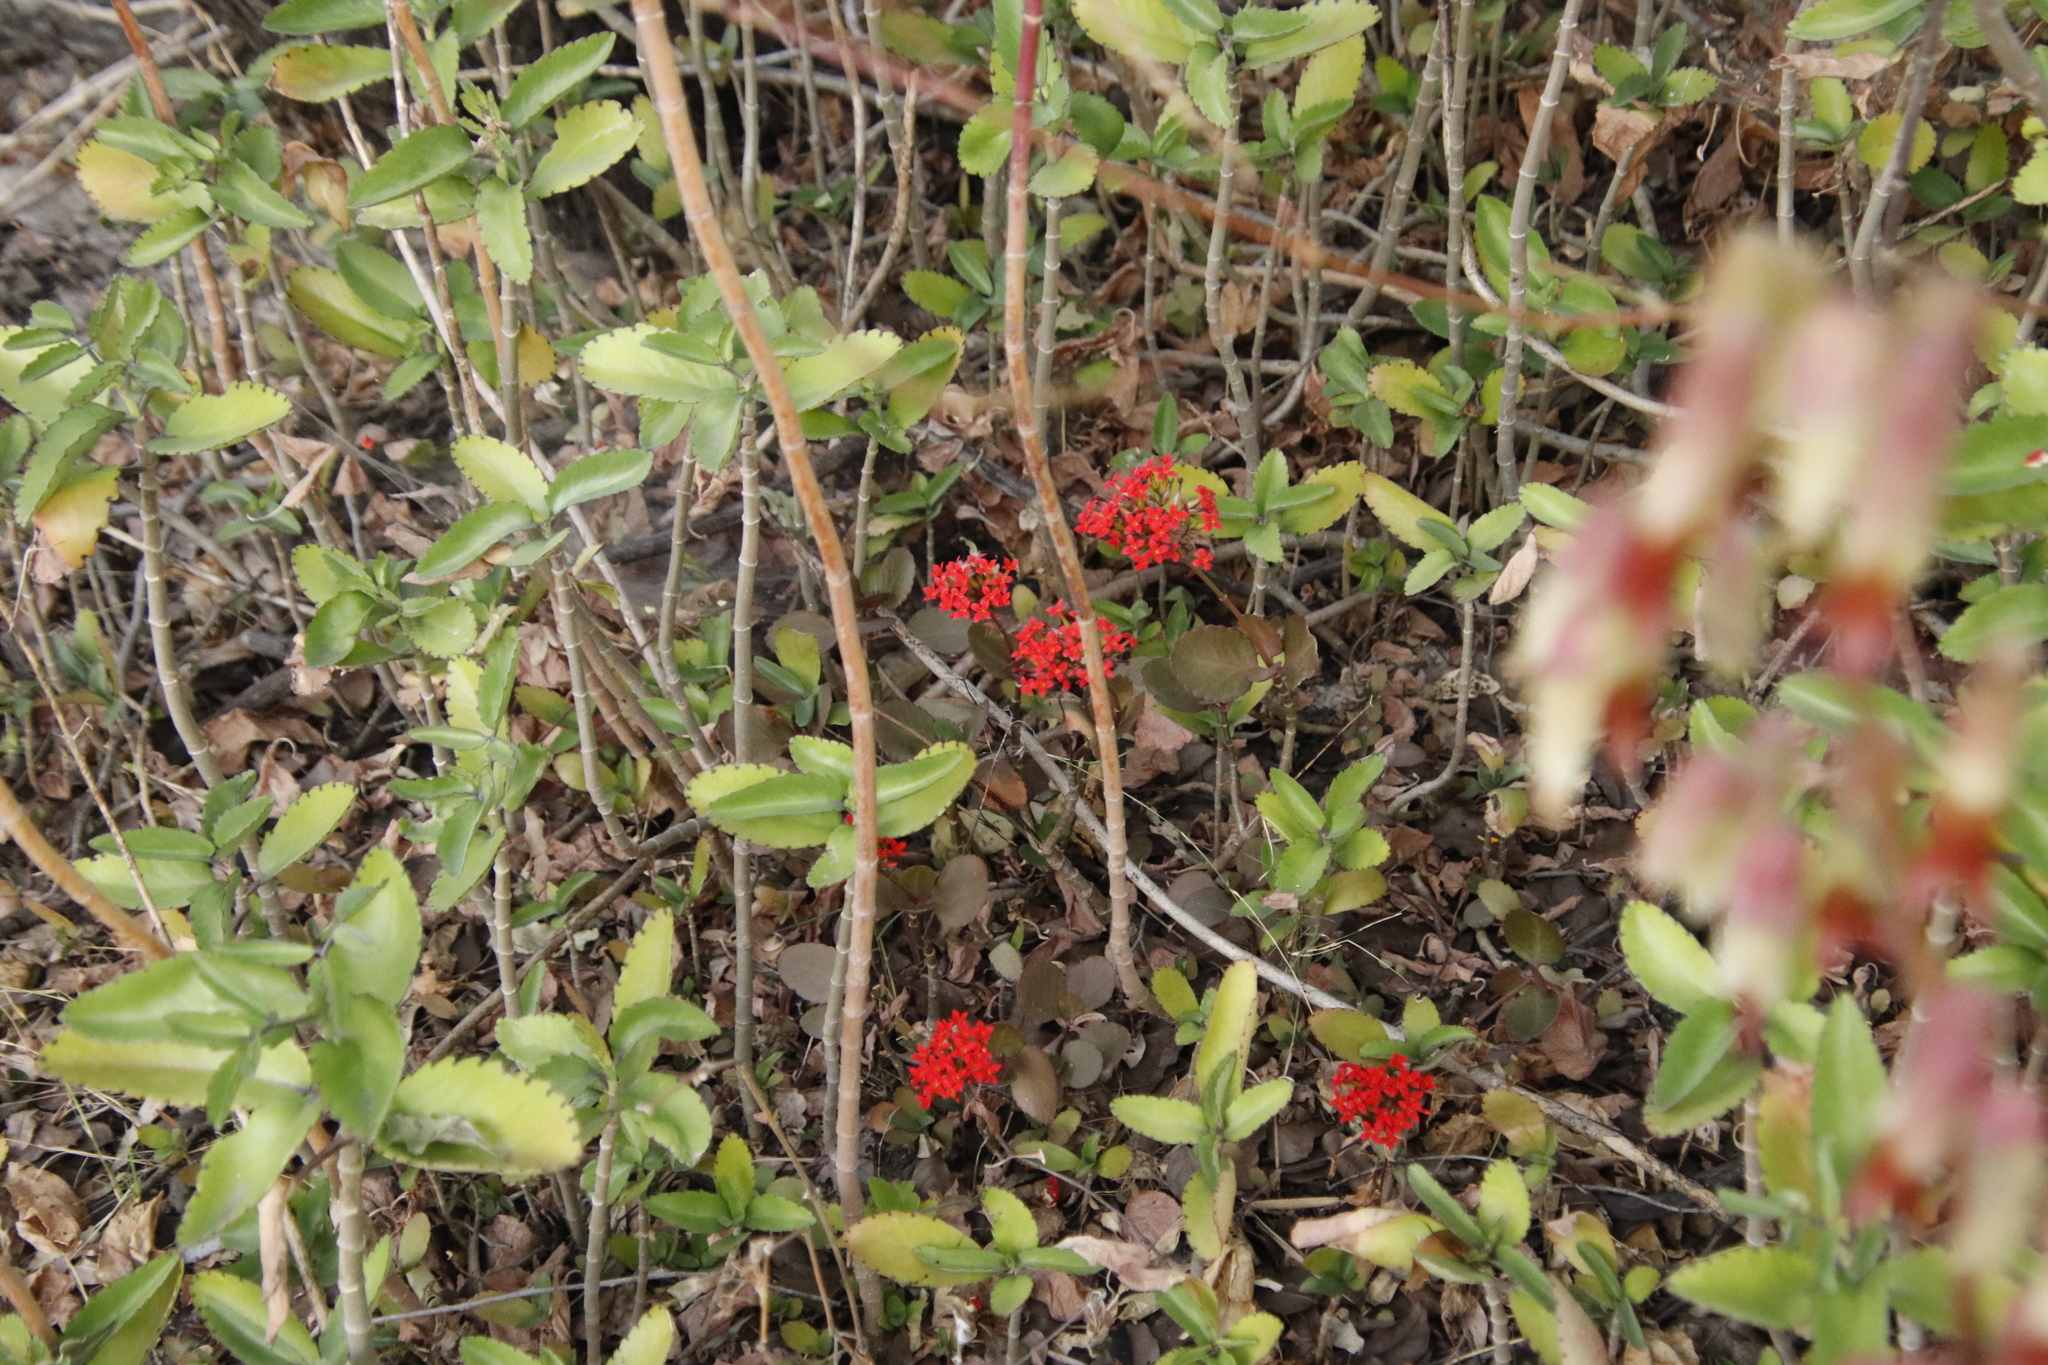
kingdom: Plantae
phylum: Tracheophyta
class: Magnoliopsida
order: Saxifragales
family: Crassulaceae
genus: Kalanchoe
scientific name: Kalanchoe blossfeldiana
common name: Flaming katy
